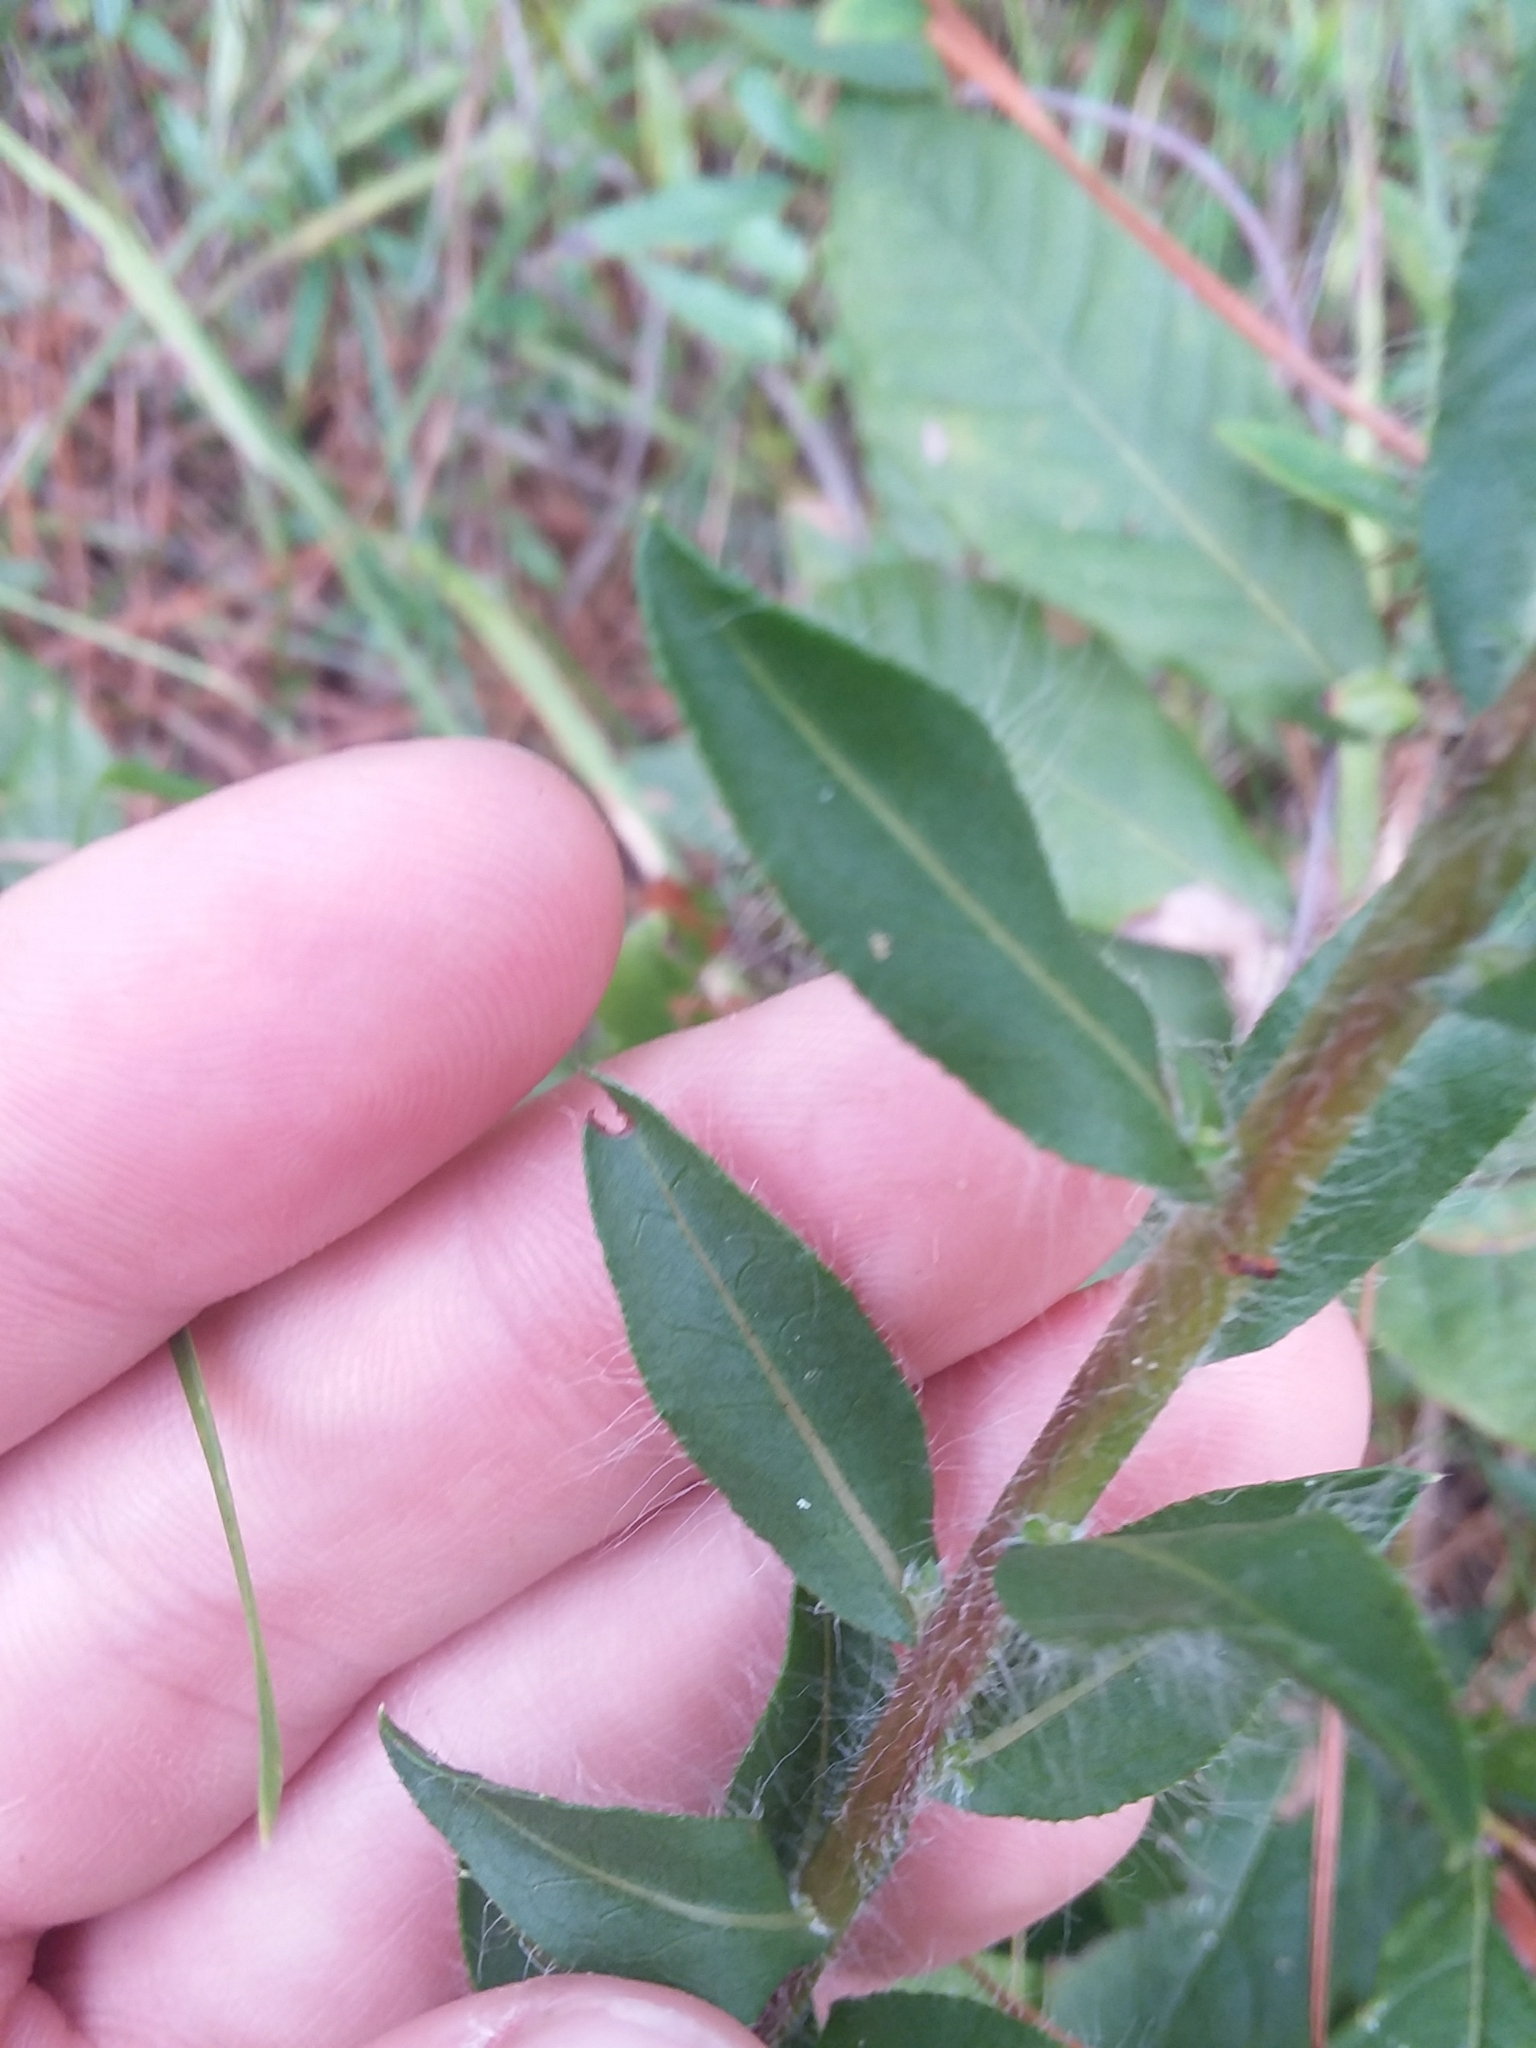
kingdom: Plantae
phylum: Tracheophyta
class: Magnoliopsida
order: Asterales
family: Asteraceae
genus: Chrysopsis
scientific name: Chrysopsis mariana
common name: Maryland golden-aster
